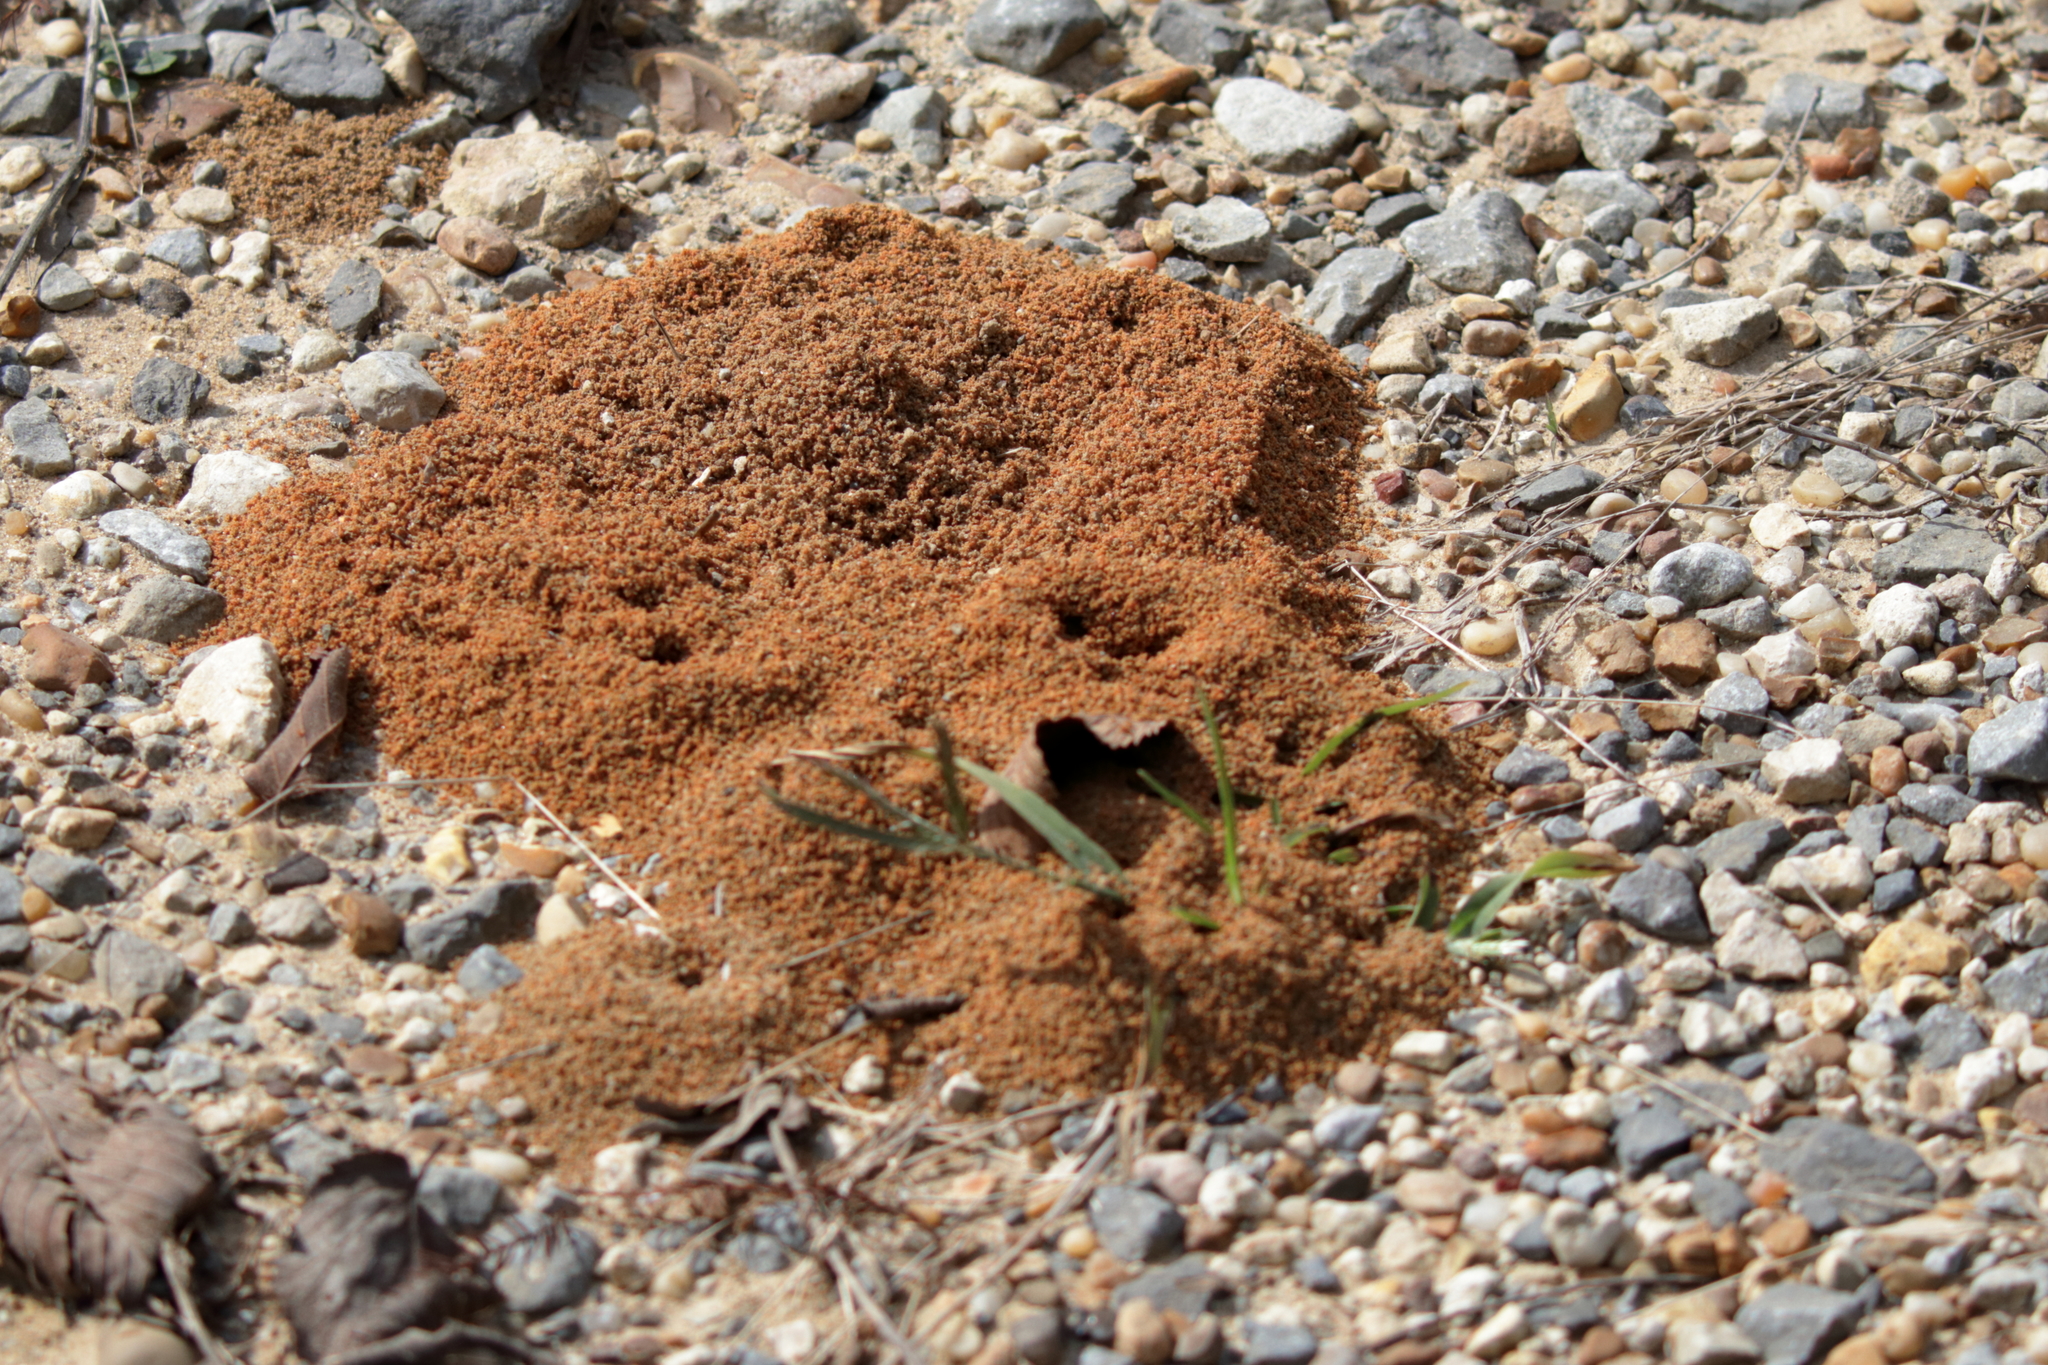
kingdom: Animalia
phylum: Arthropoda
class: Insecta
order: Hymenoptera
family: Formicidae
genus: Solenopsis
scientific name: Solenopsis invicta
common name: Red imported fire ant
